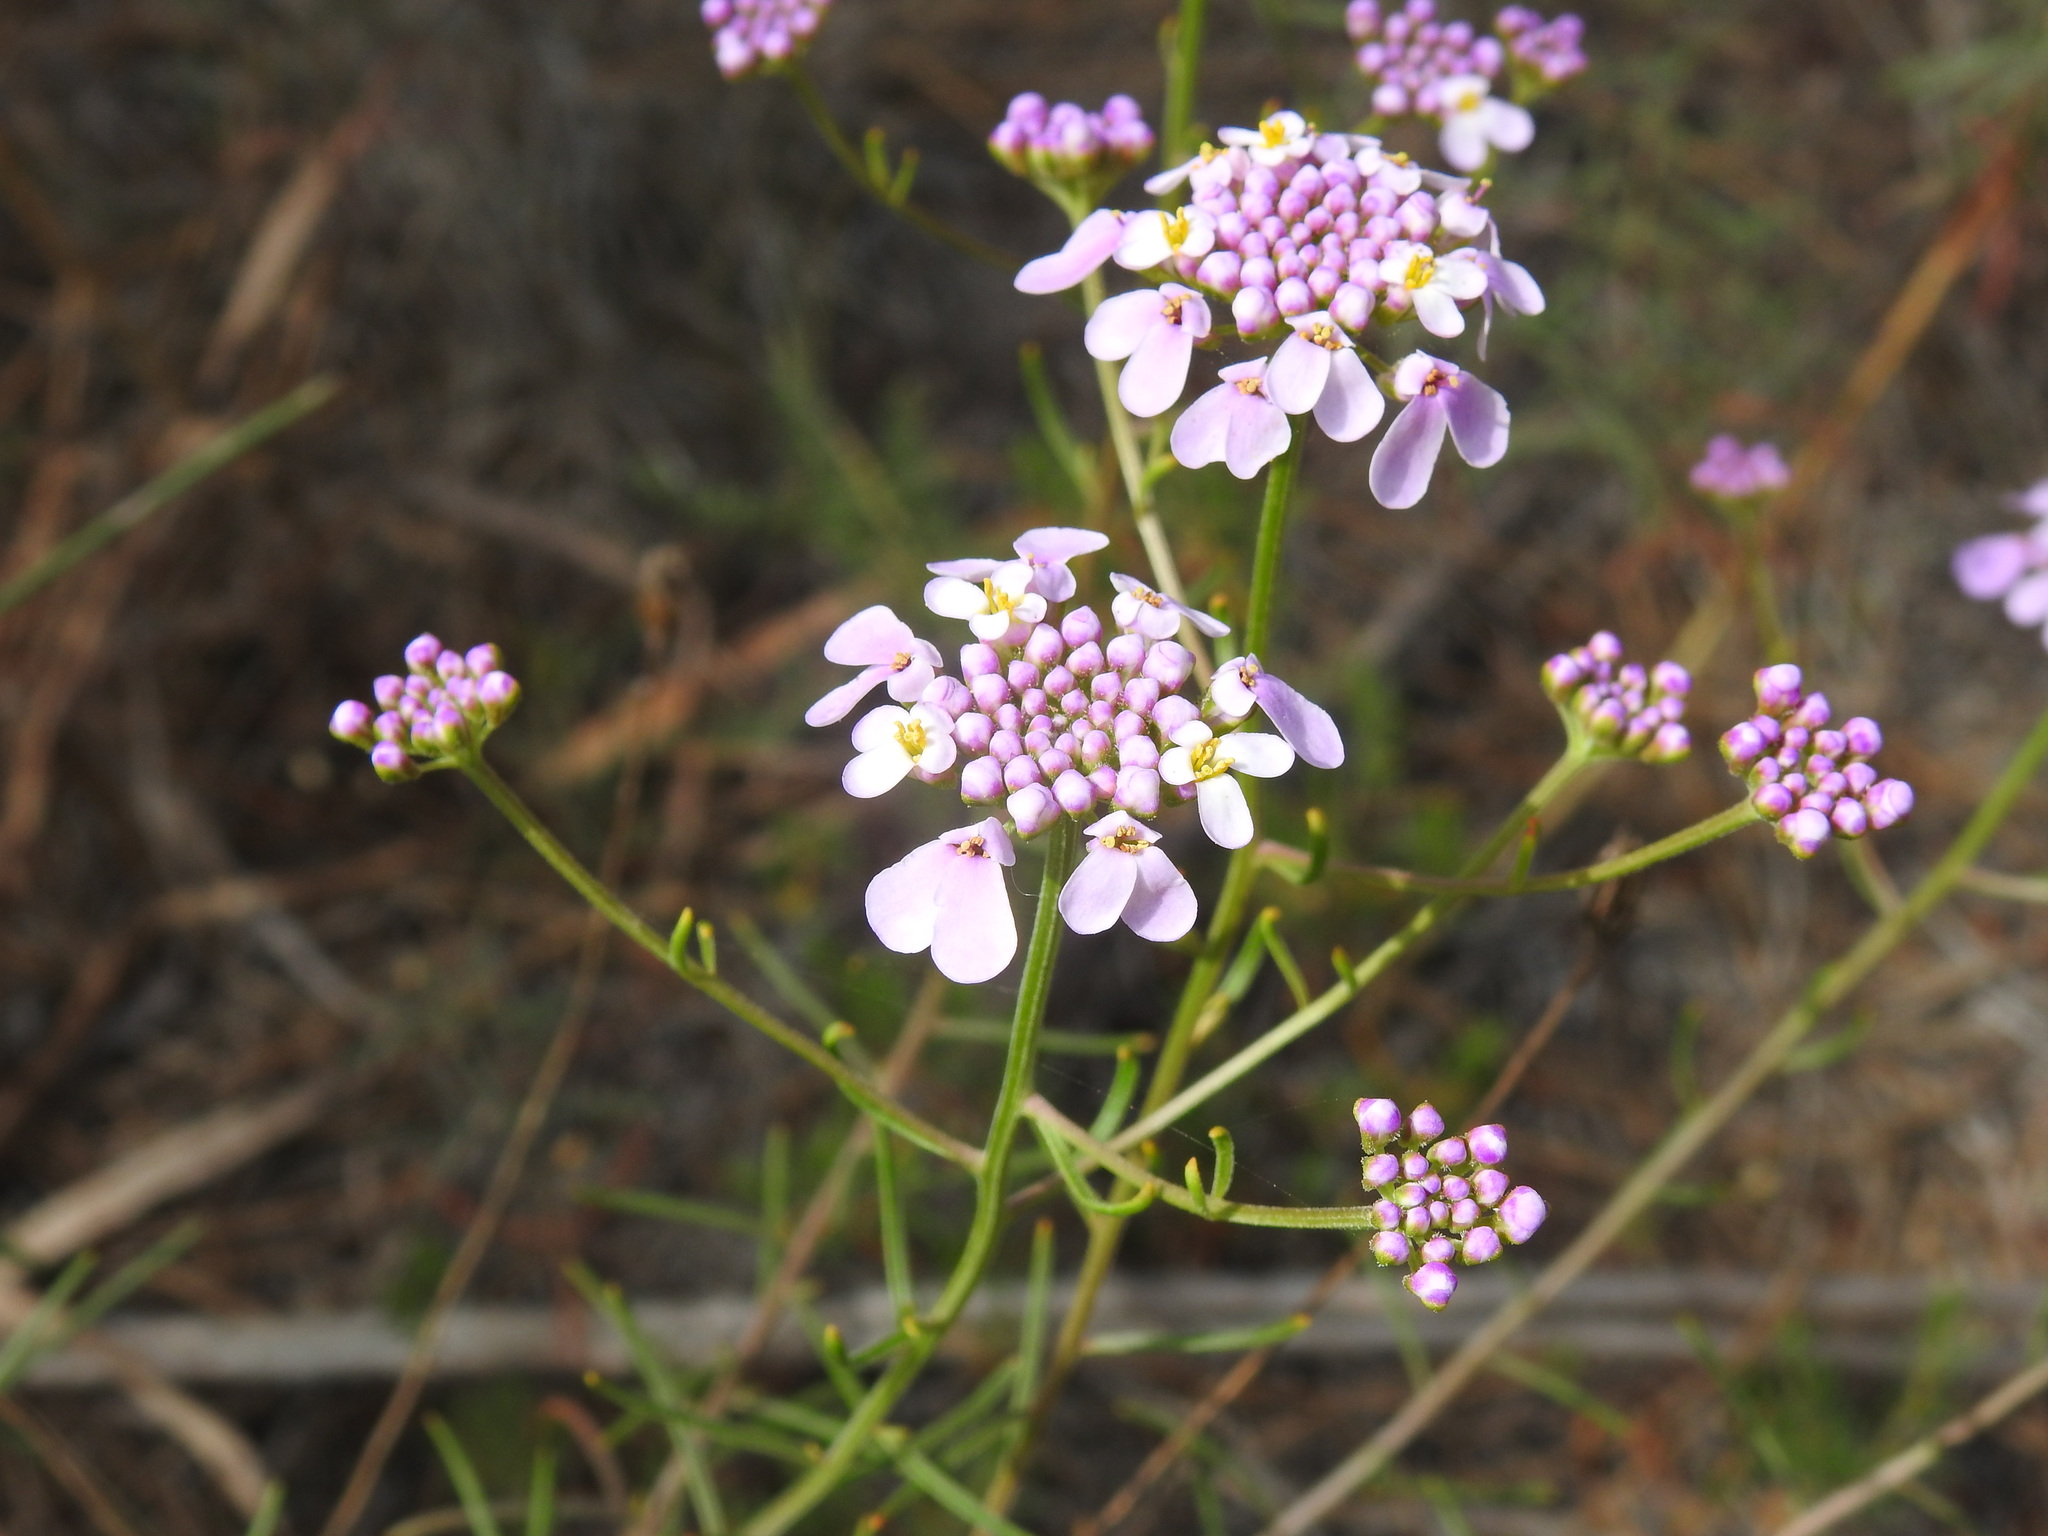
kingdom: Plantae
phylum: Tracheophyta
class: Magnoliopsida
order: Brassicales
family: Brassicaceae
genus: Iberis
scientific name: Iberis ciliata
